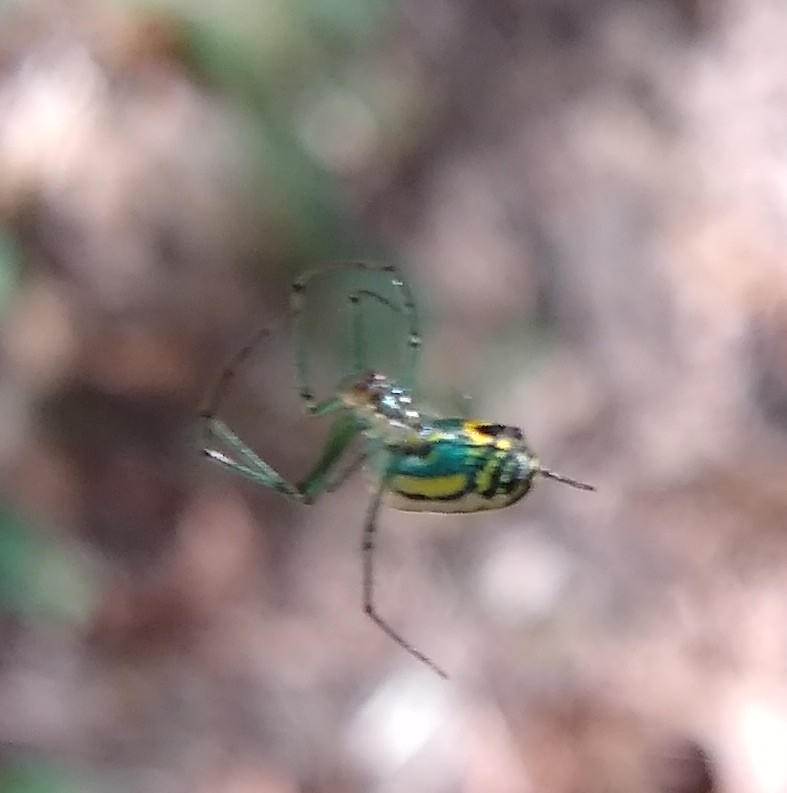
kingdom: Animalia
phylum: Arthropoda
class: Arachnida
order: Araneae
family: Tetragnathidae
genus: Leucauge
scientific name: Leucauge venusta
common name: Longjawed orb weavers
